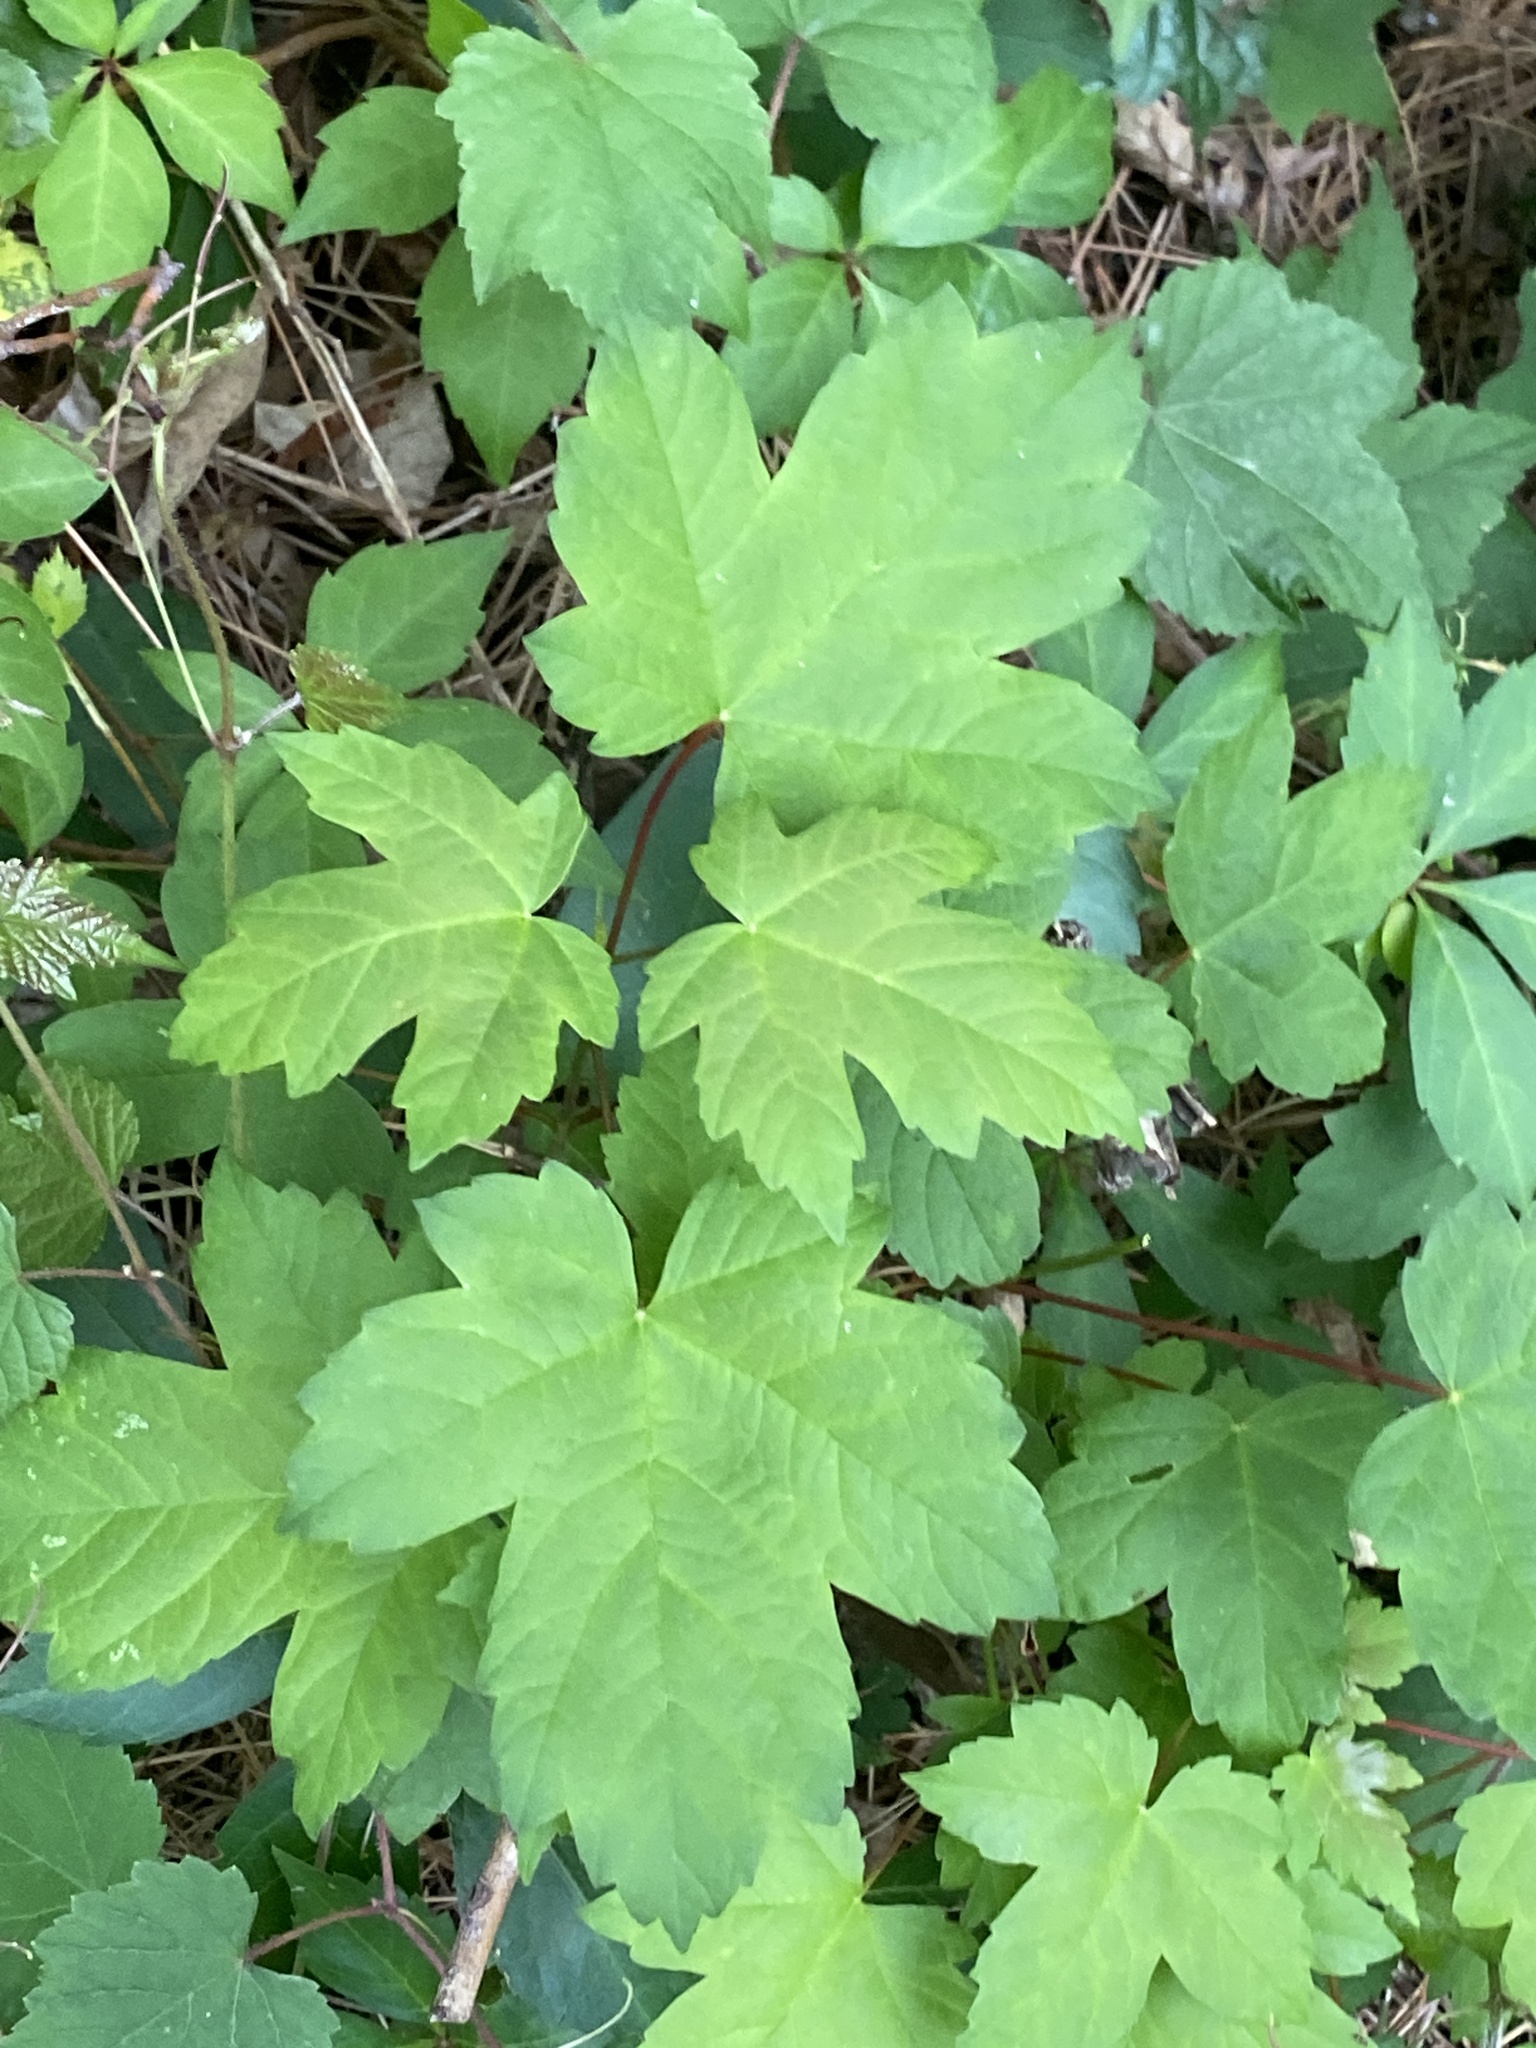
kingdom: Plantae
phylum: Tracheophyta
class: Magnoliopsida
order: Sapindales
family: Sapindaceae
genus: Acer
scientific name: Acer pseudoplatanus
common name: Sycamore
